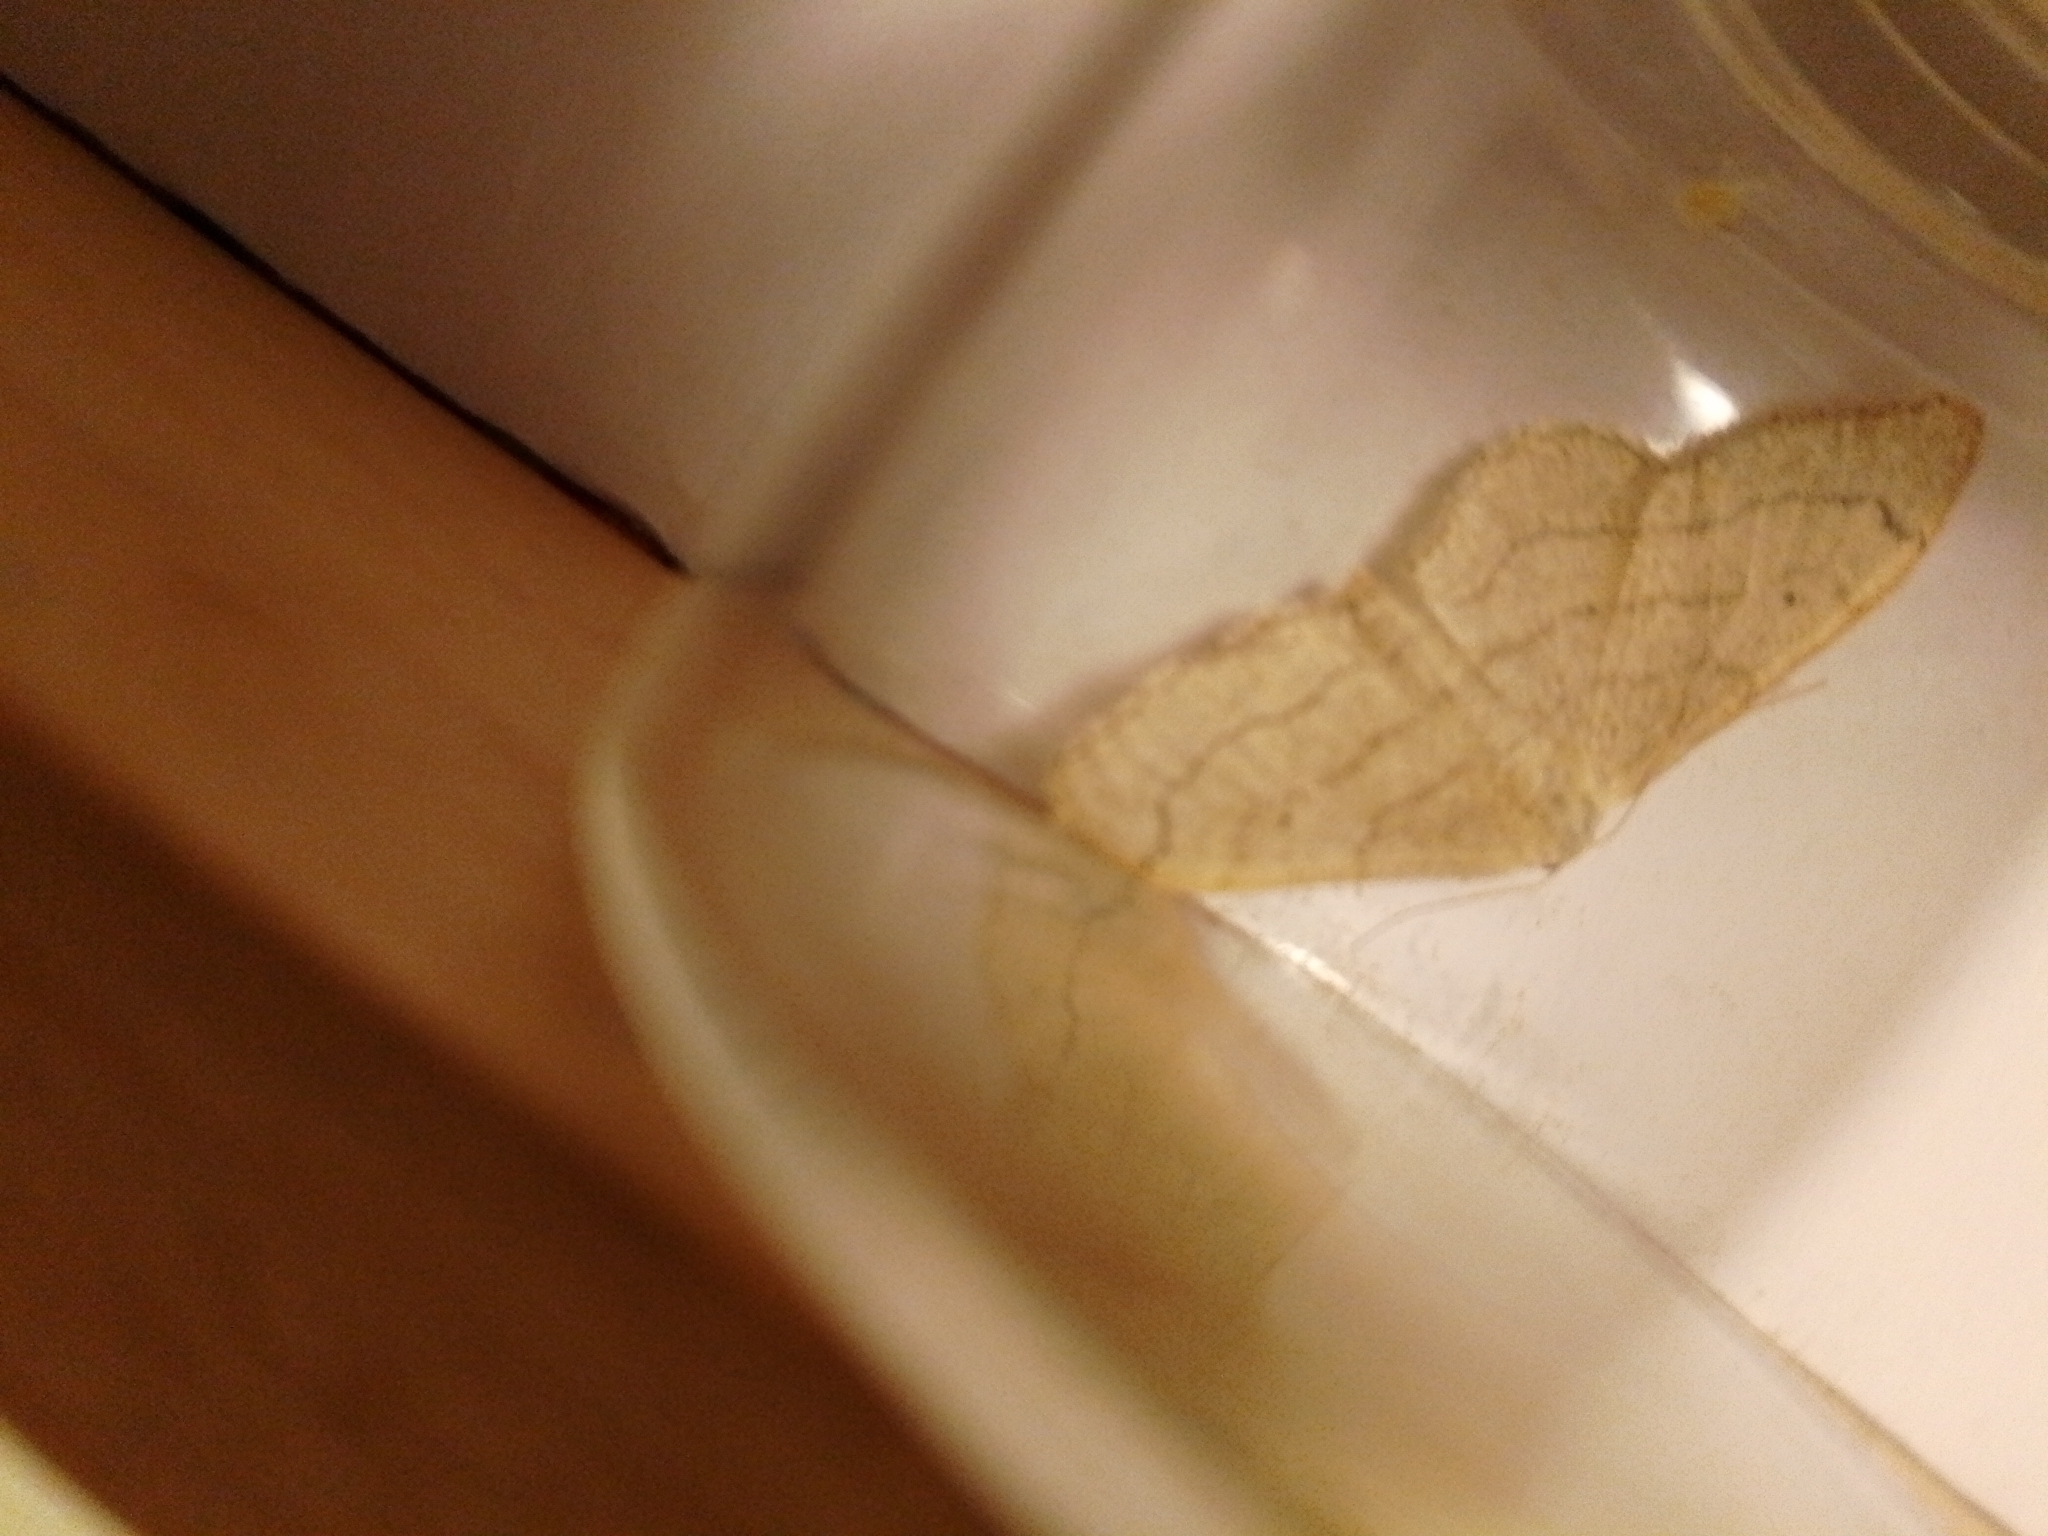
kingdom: Animalia
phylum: Arthropoda
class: Insecta
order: Lepidoptera
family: Geometridae
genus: Idaea
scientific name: Idaea aversata
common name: Riband wave
